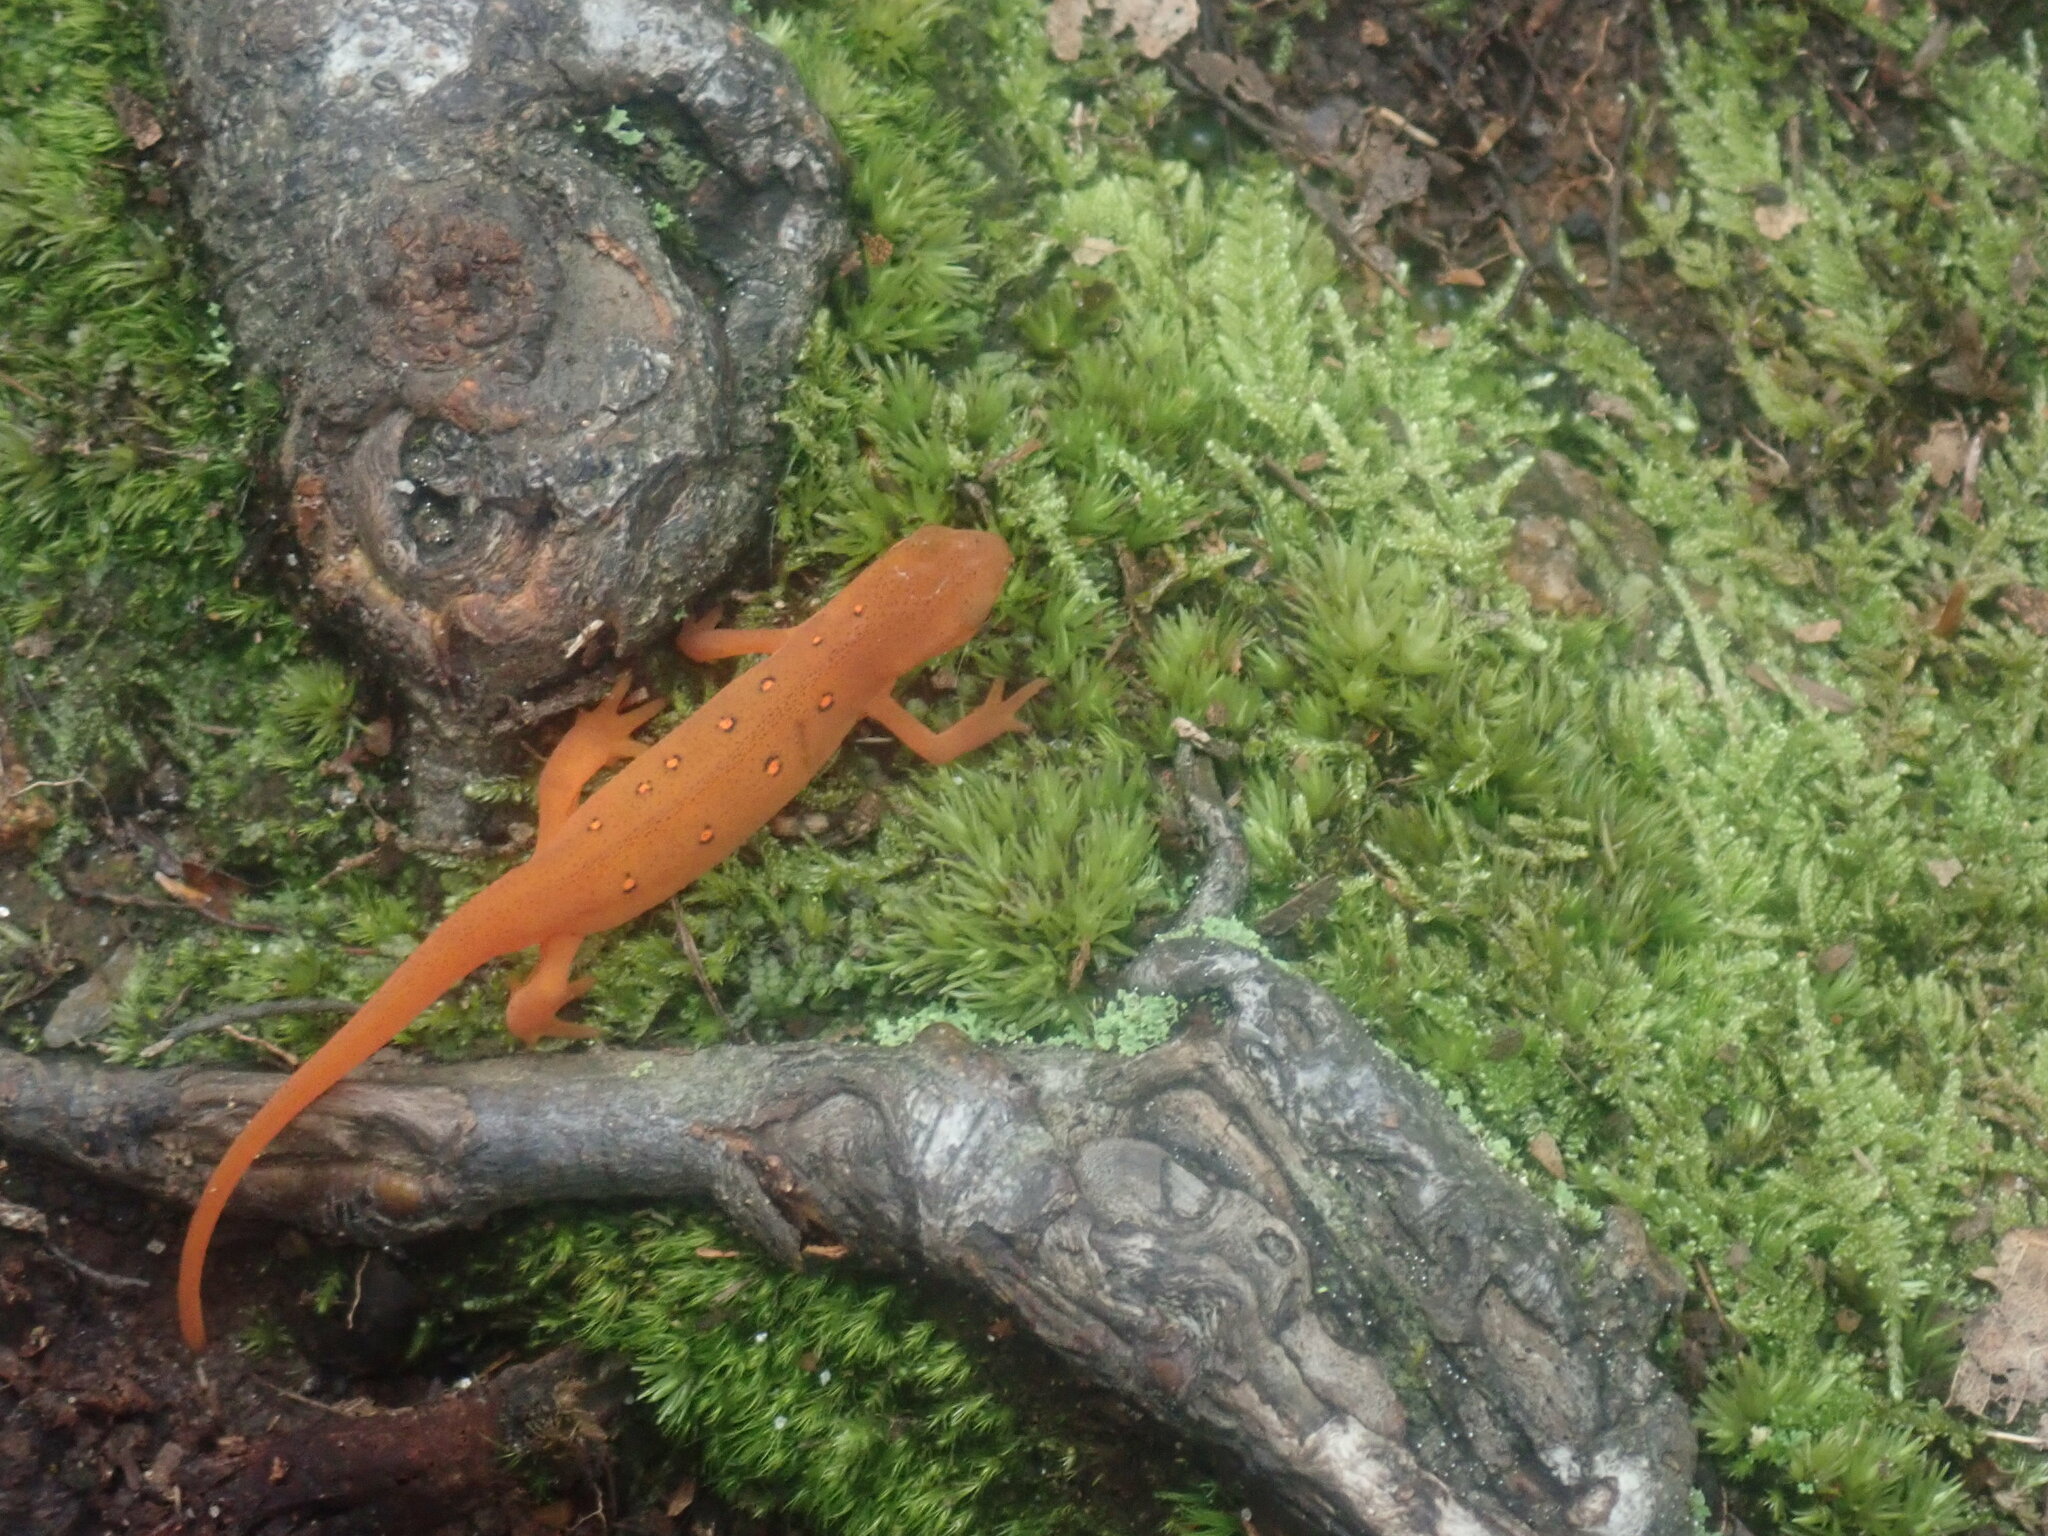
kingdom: Animalia
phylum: Chordata
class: Amphibia
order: Caudata
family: Salamandridae
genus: Notophthalmus
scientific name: Notophthalmus viridescens
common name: Eastern newt
